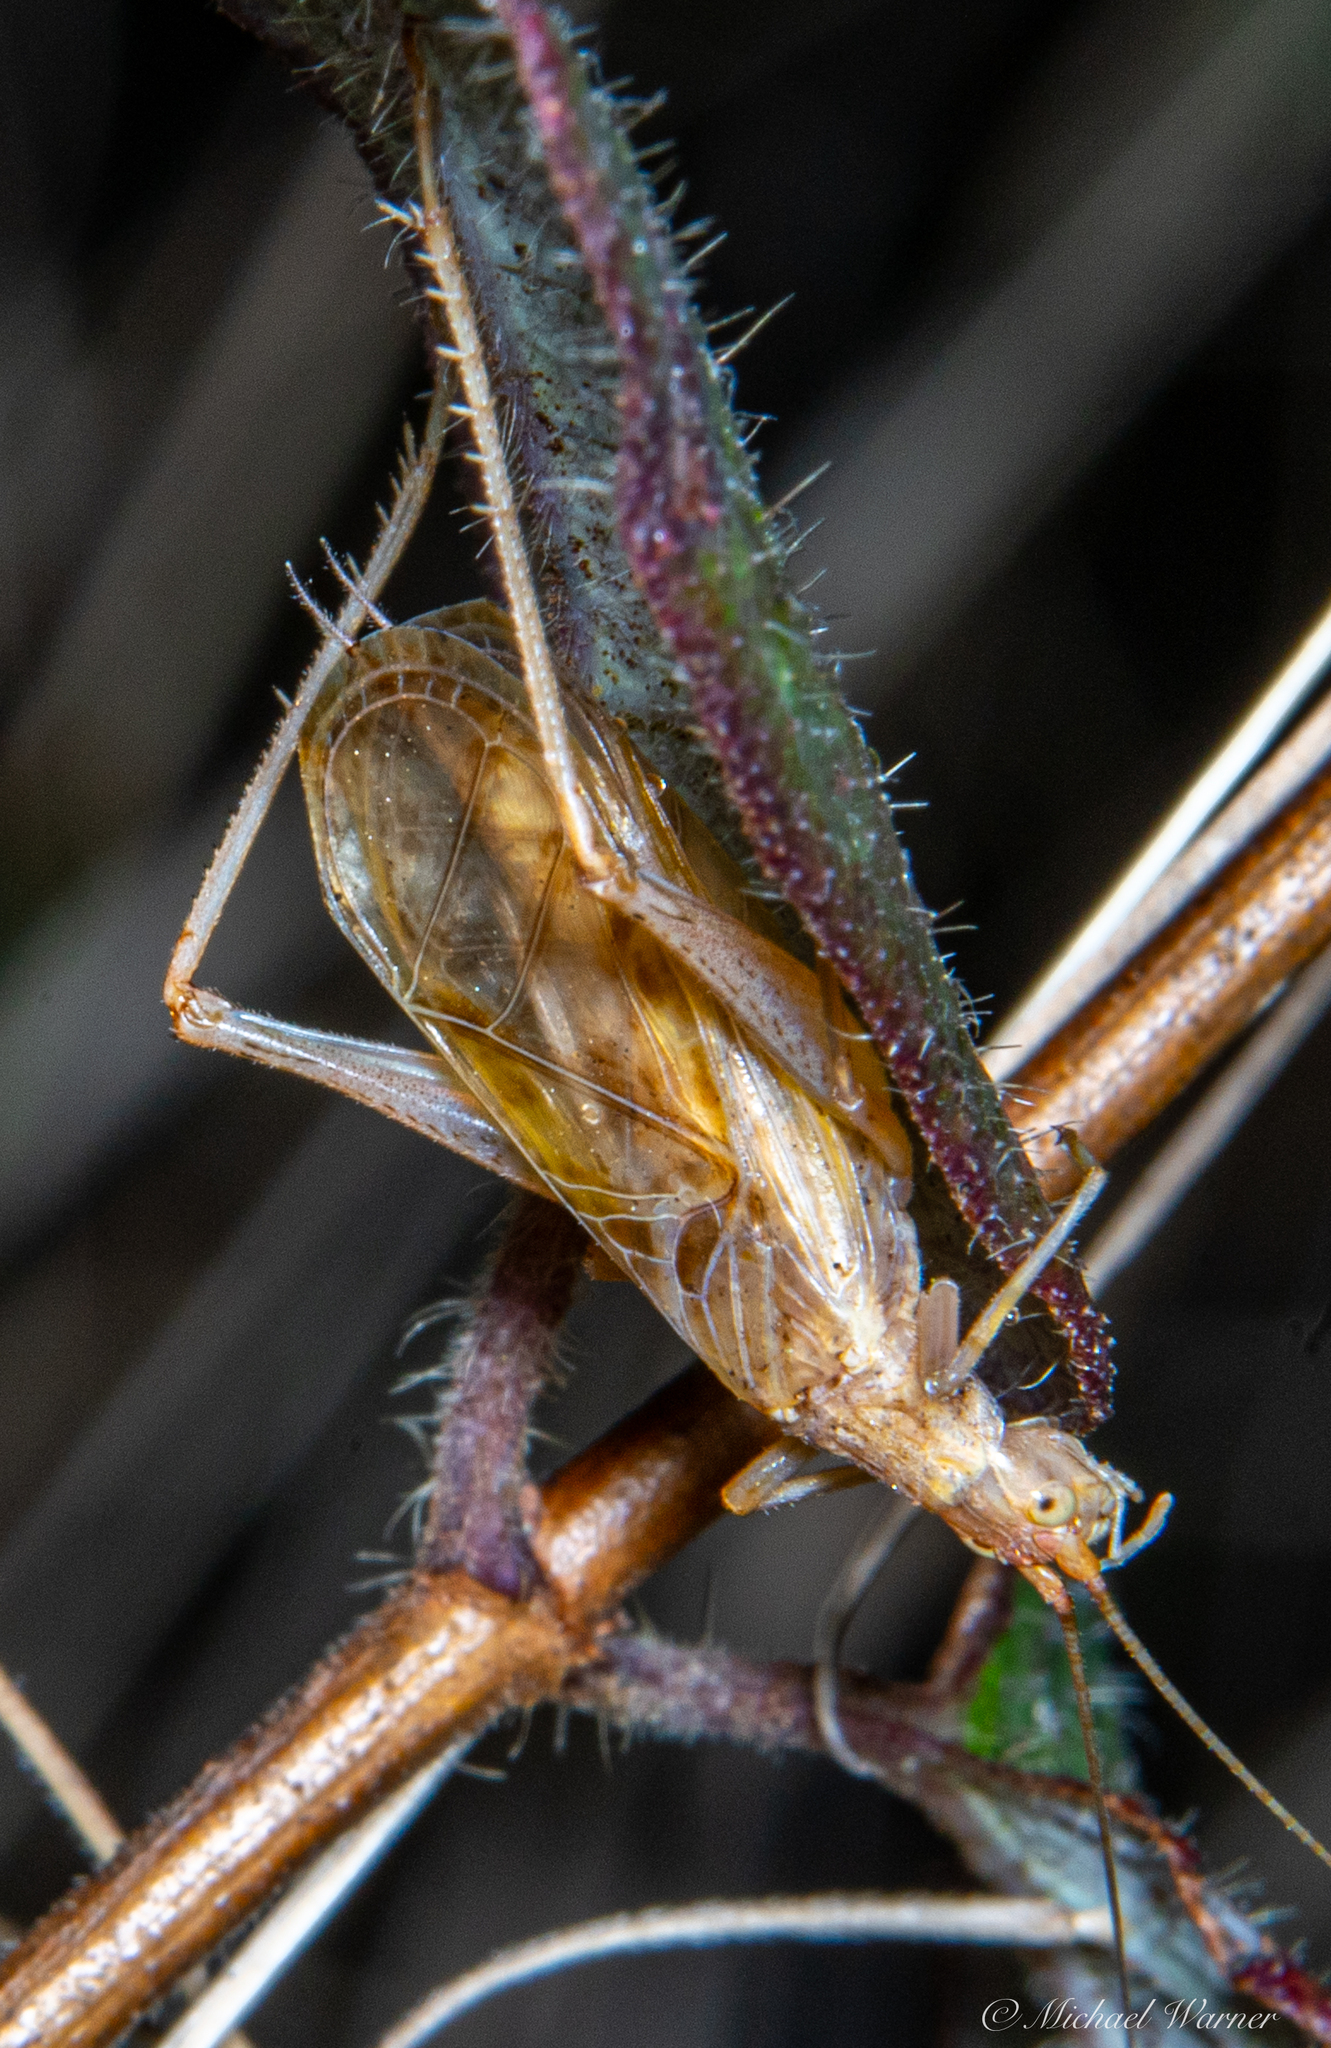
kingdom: Animalia
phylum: Arthropoda
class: Insecta
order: Orthoptera
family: Gryllidae
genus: Oecanthus
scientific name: Oecanthus californicus
